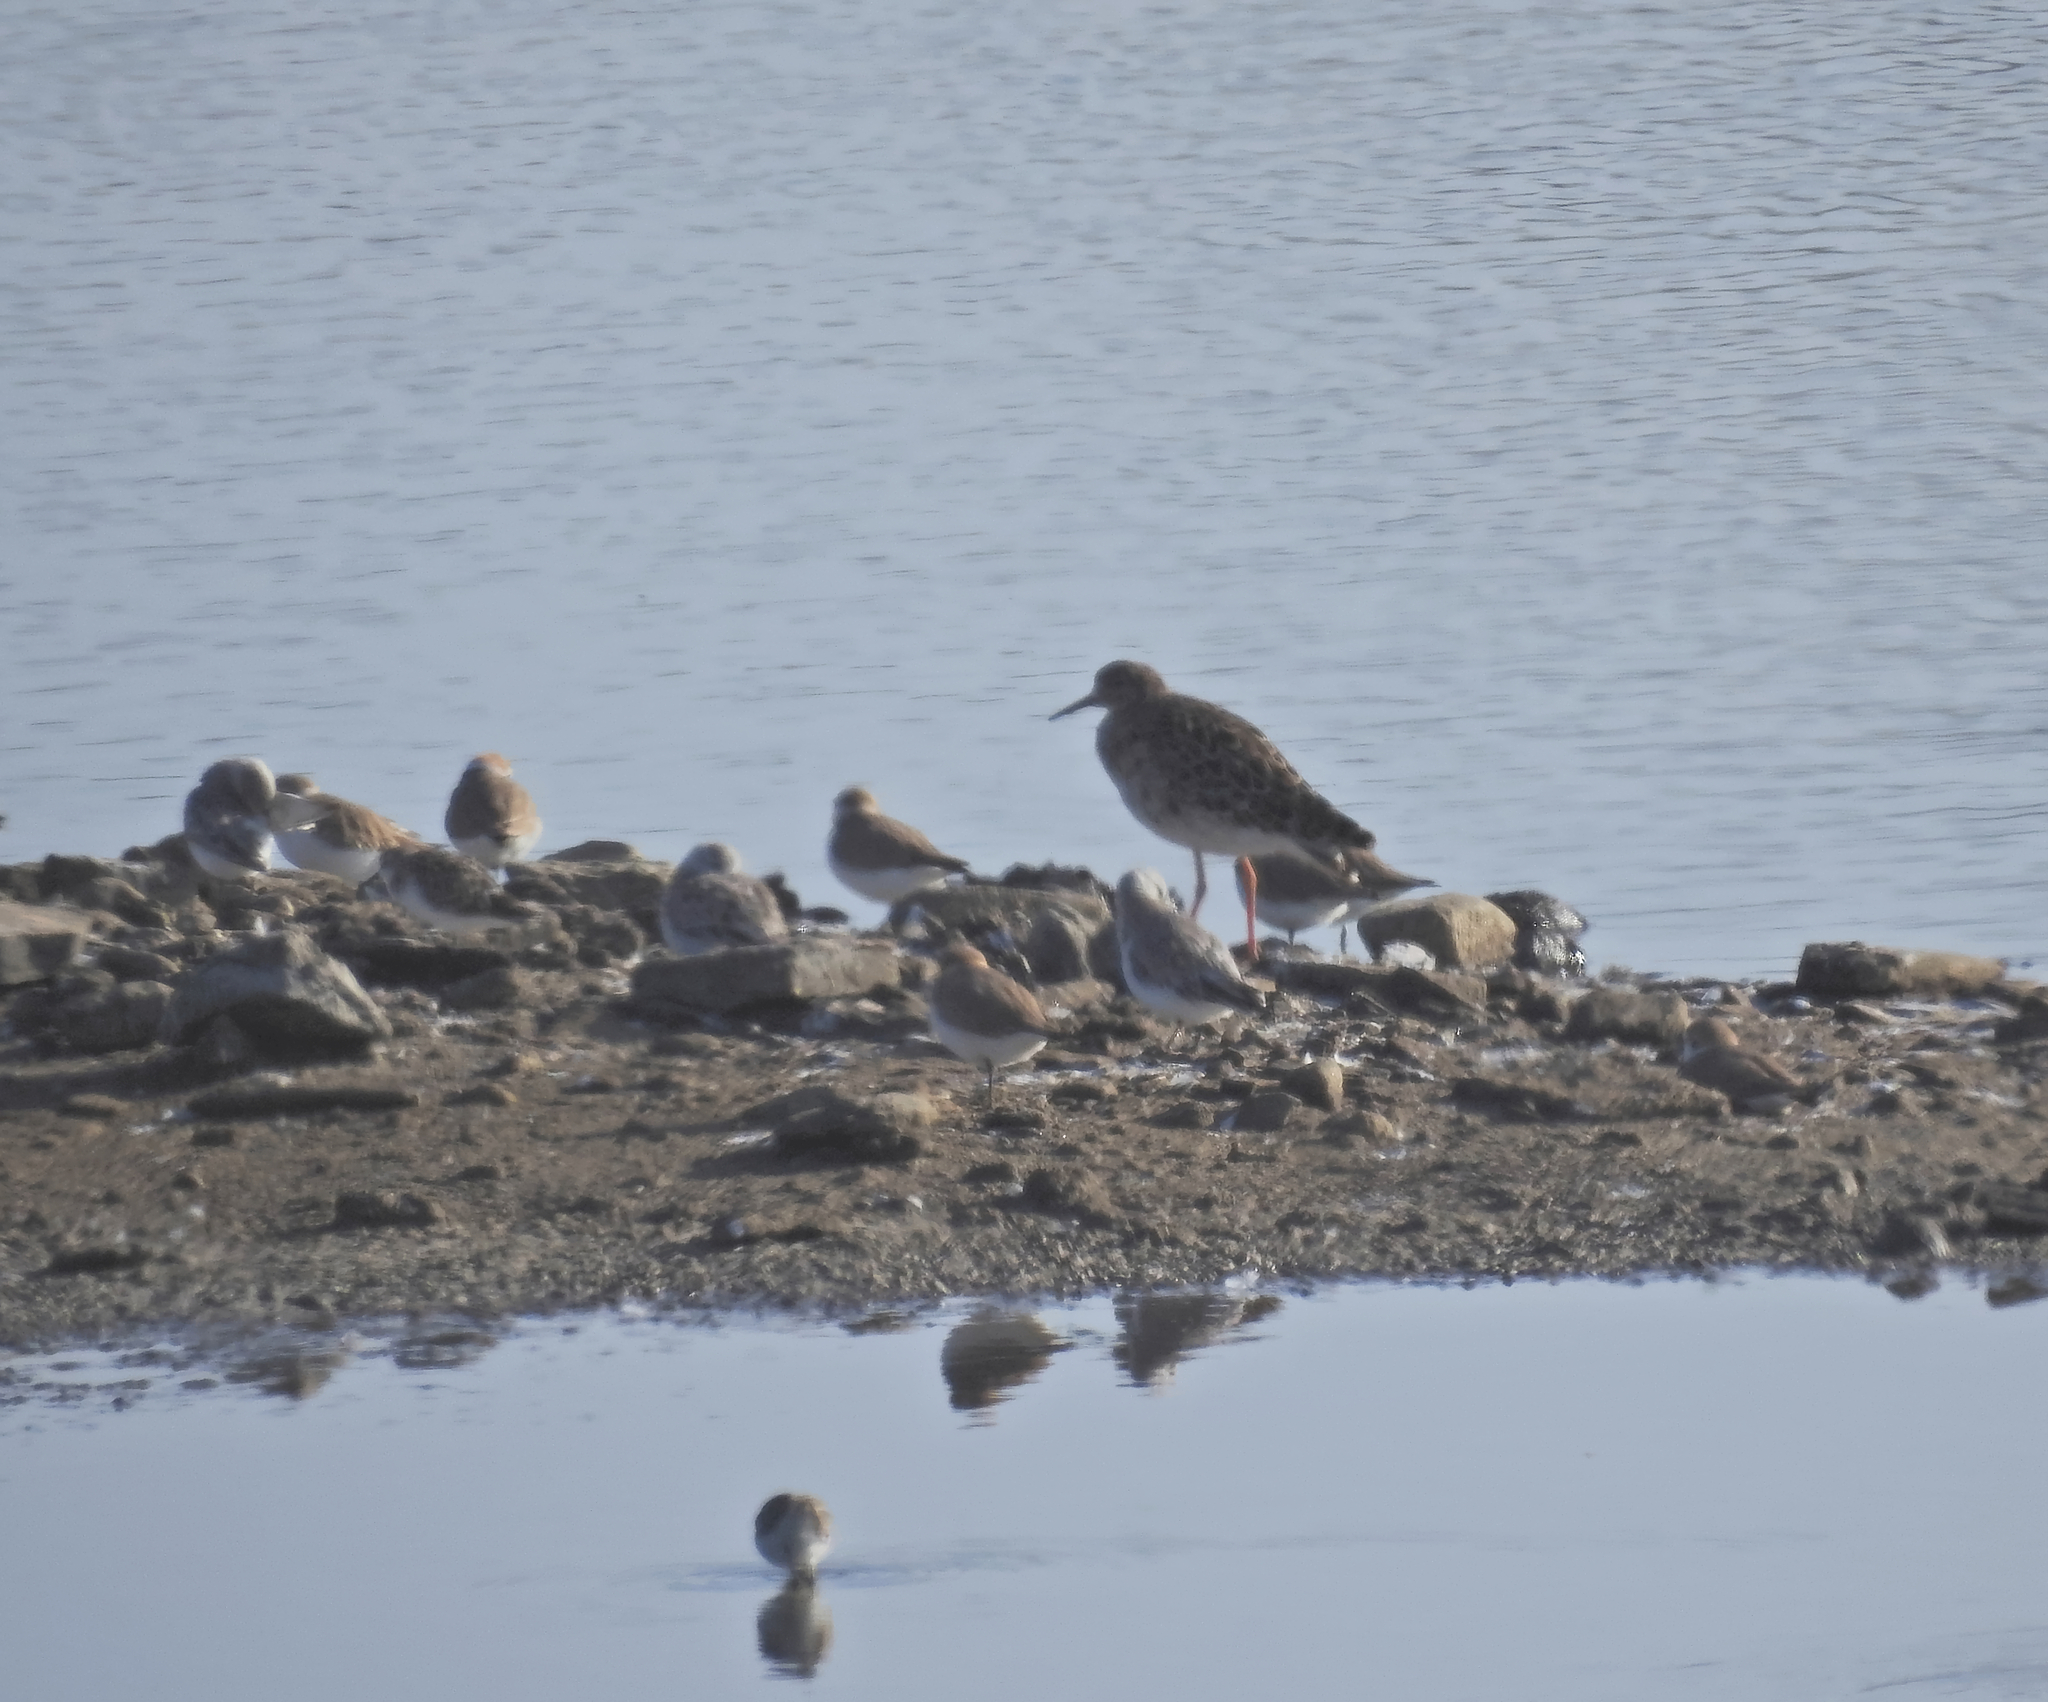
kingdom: Animalia
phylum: Chordata
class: Aves
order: Charadriiformes
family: Scolopacidae
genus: Calidris
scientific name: Calidris minuta
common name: Little stint
